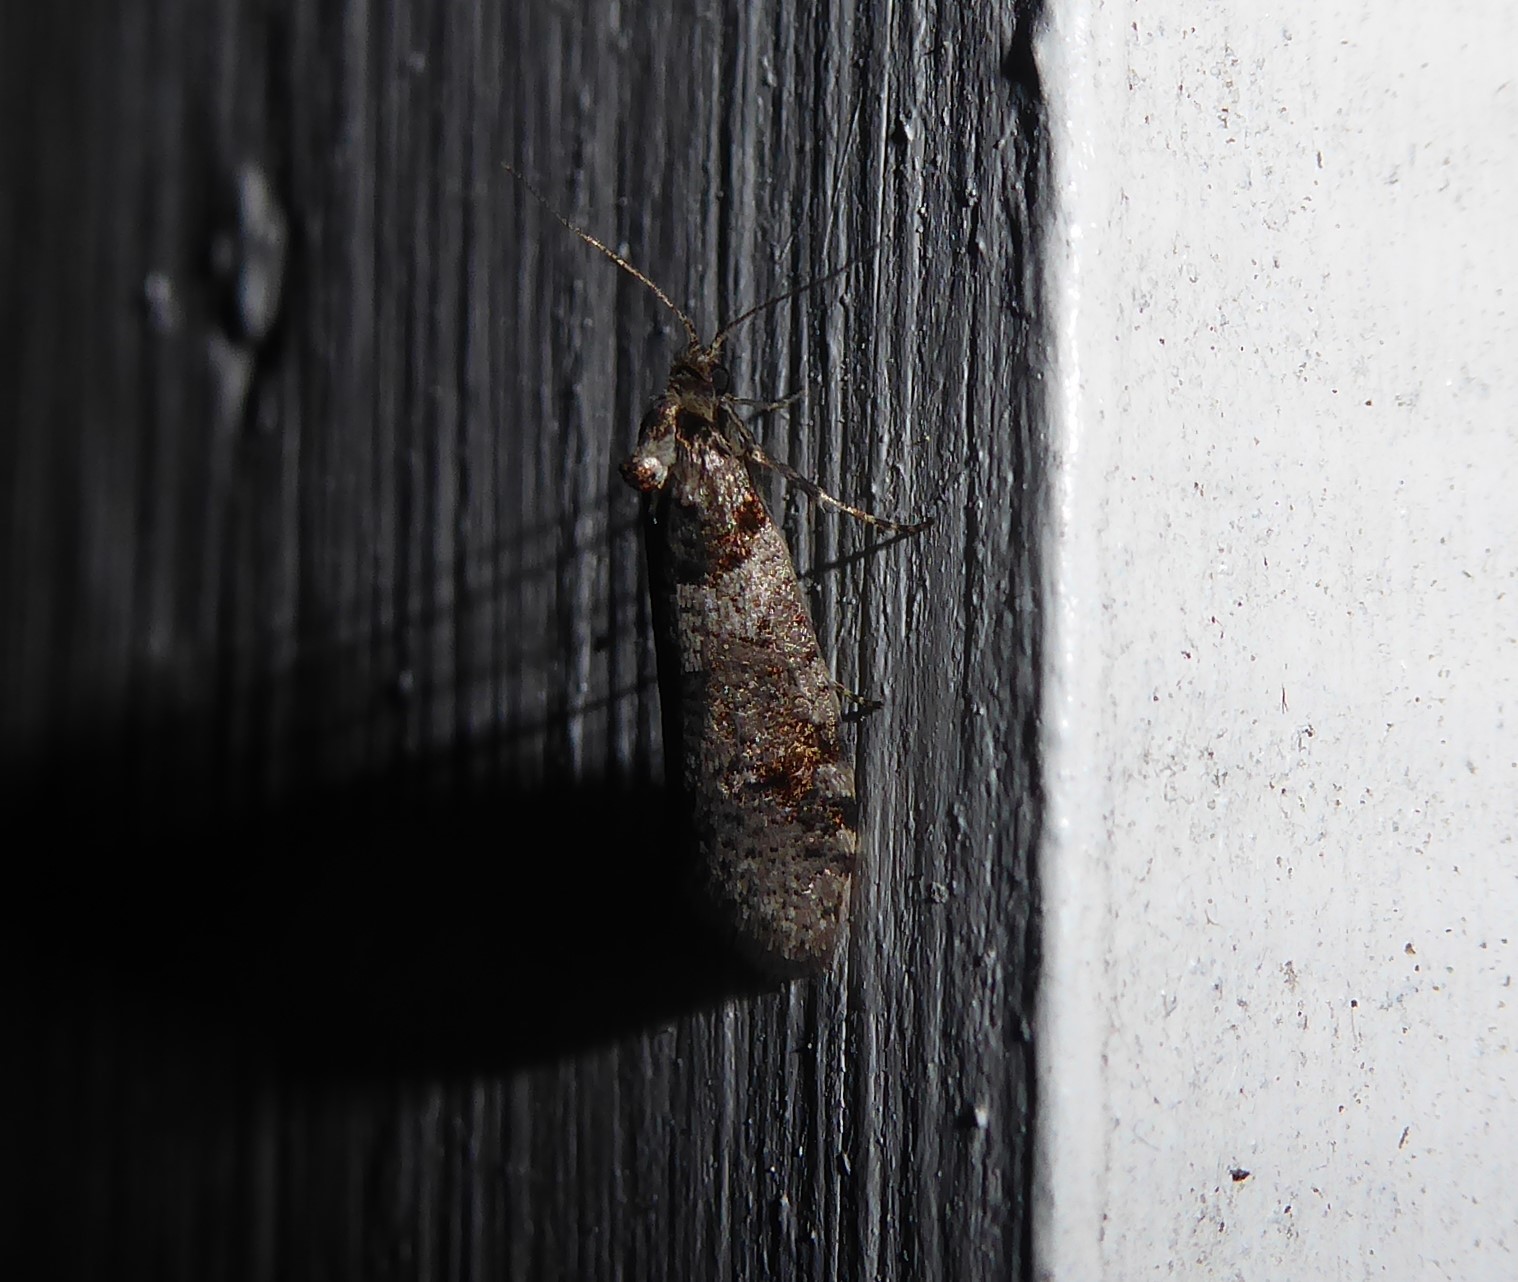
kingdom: Animalia
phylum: Arthropoda
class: Insecta
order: Lepidoptera
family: Psychidae
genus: Lepidoscia
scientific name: Lepidoscia heliochares
